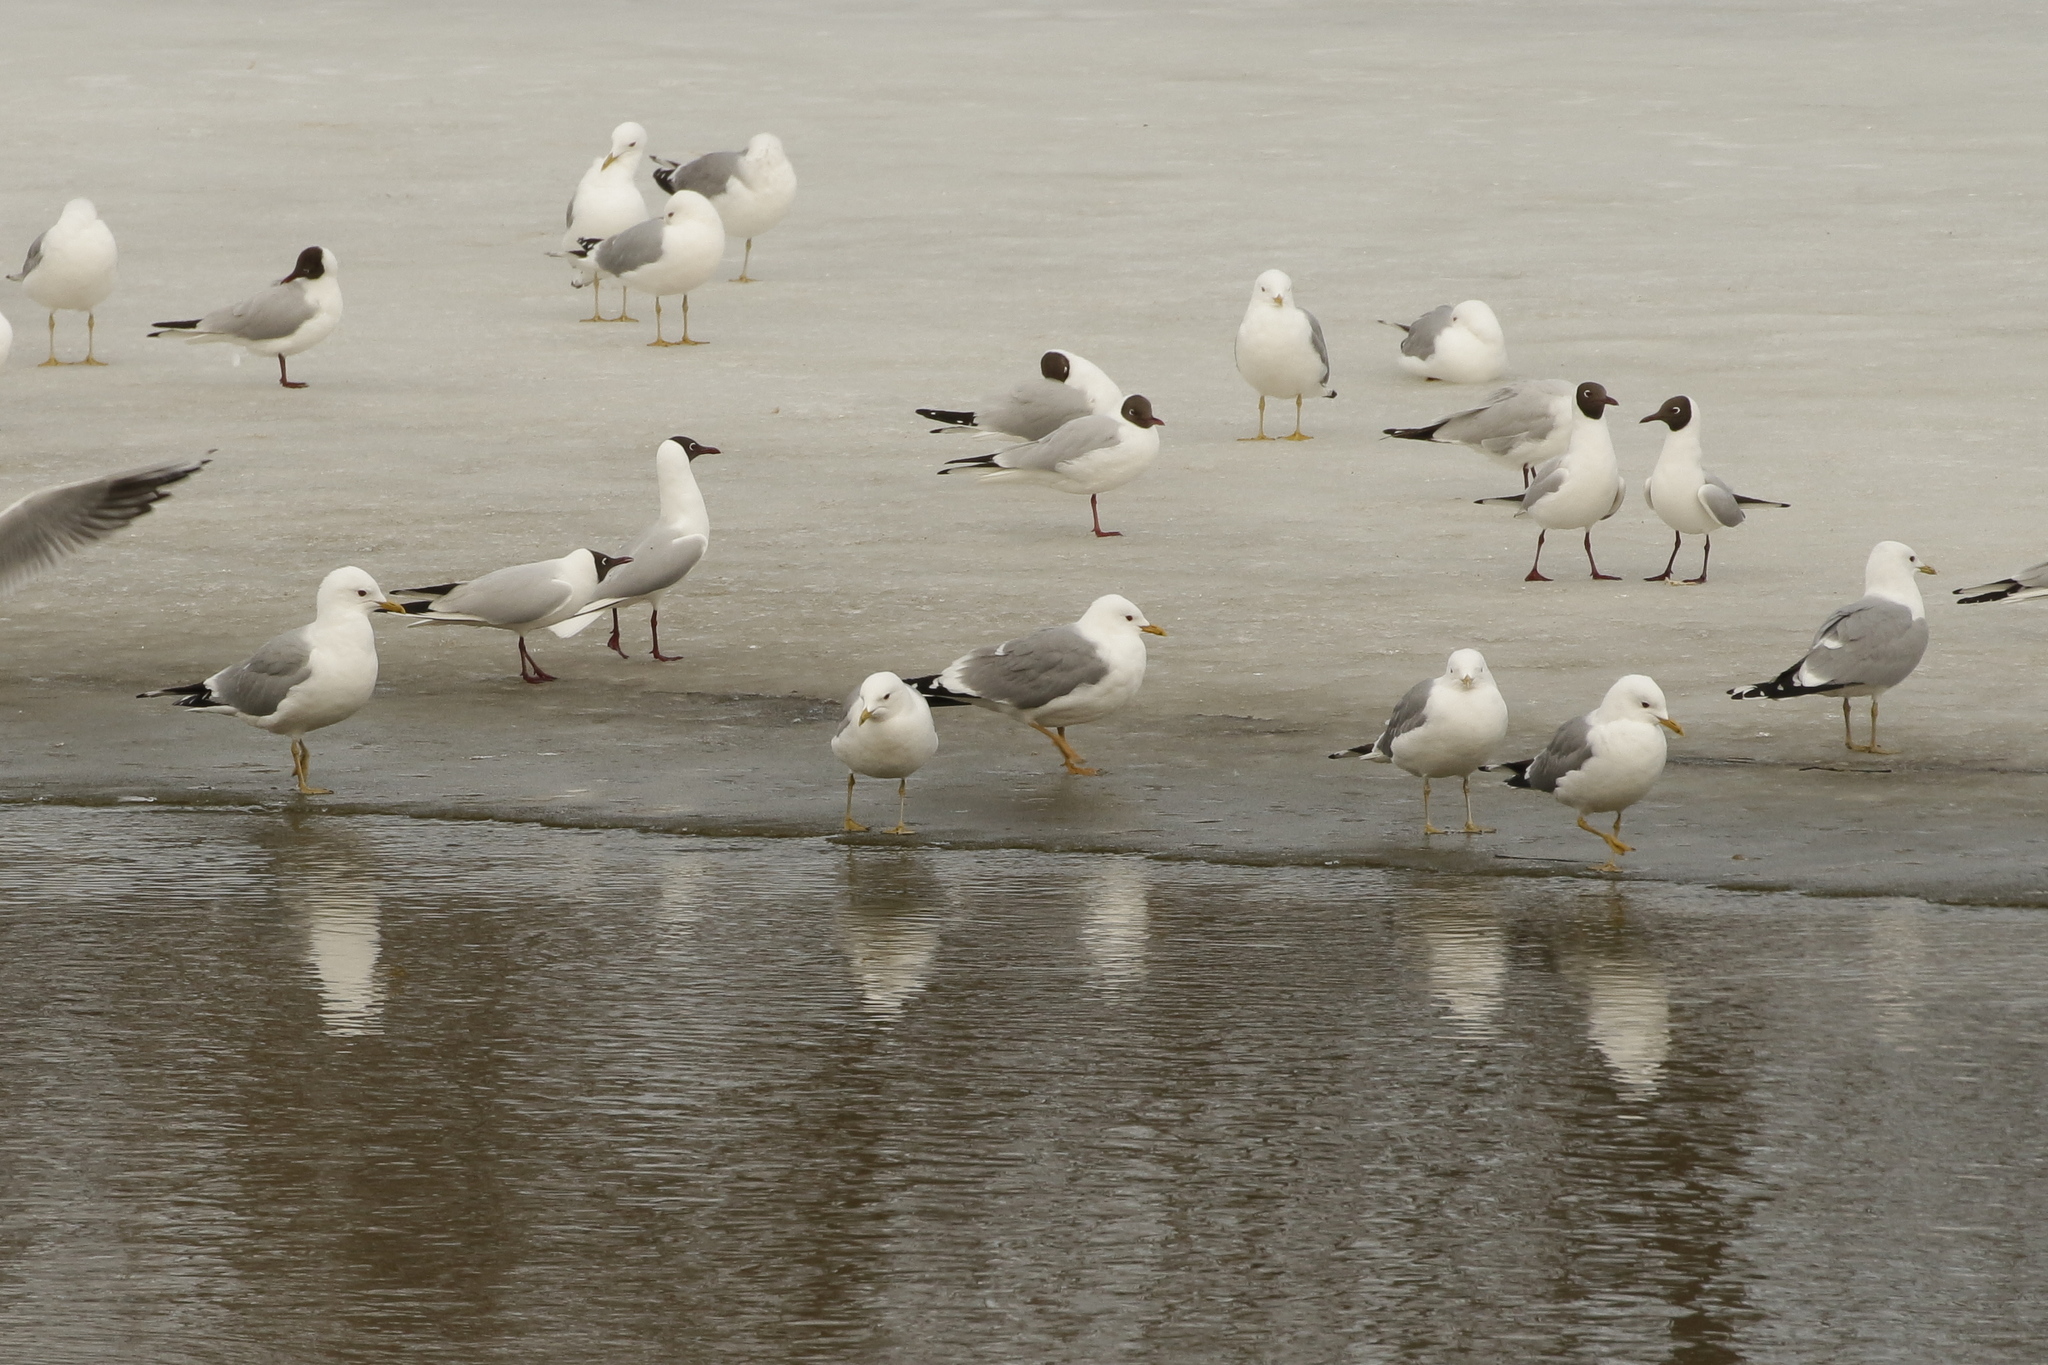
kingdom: Animalia
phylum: Chordata
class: Aves
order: Charadriiformes
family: Laridae
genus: Larus
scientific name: Larus canus
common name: Mew gull
